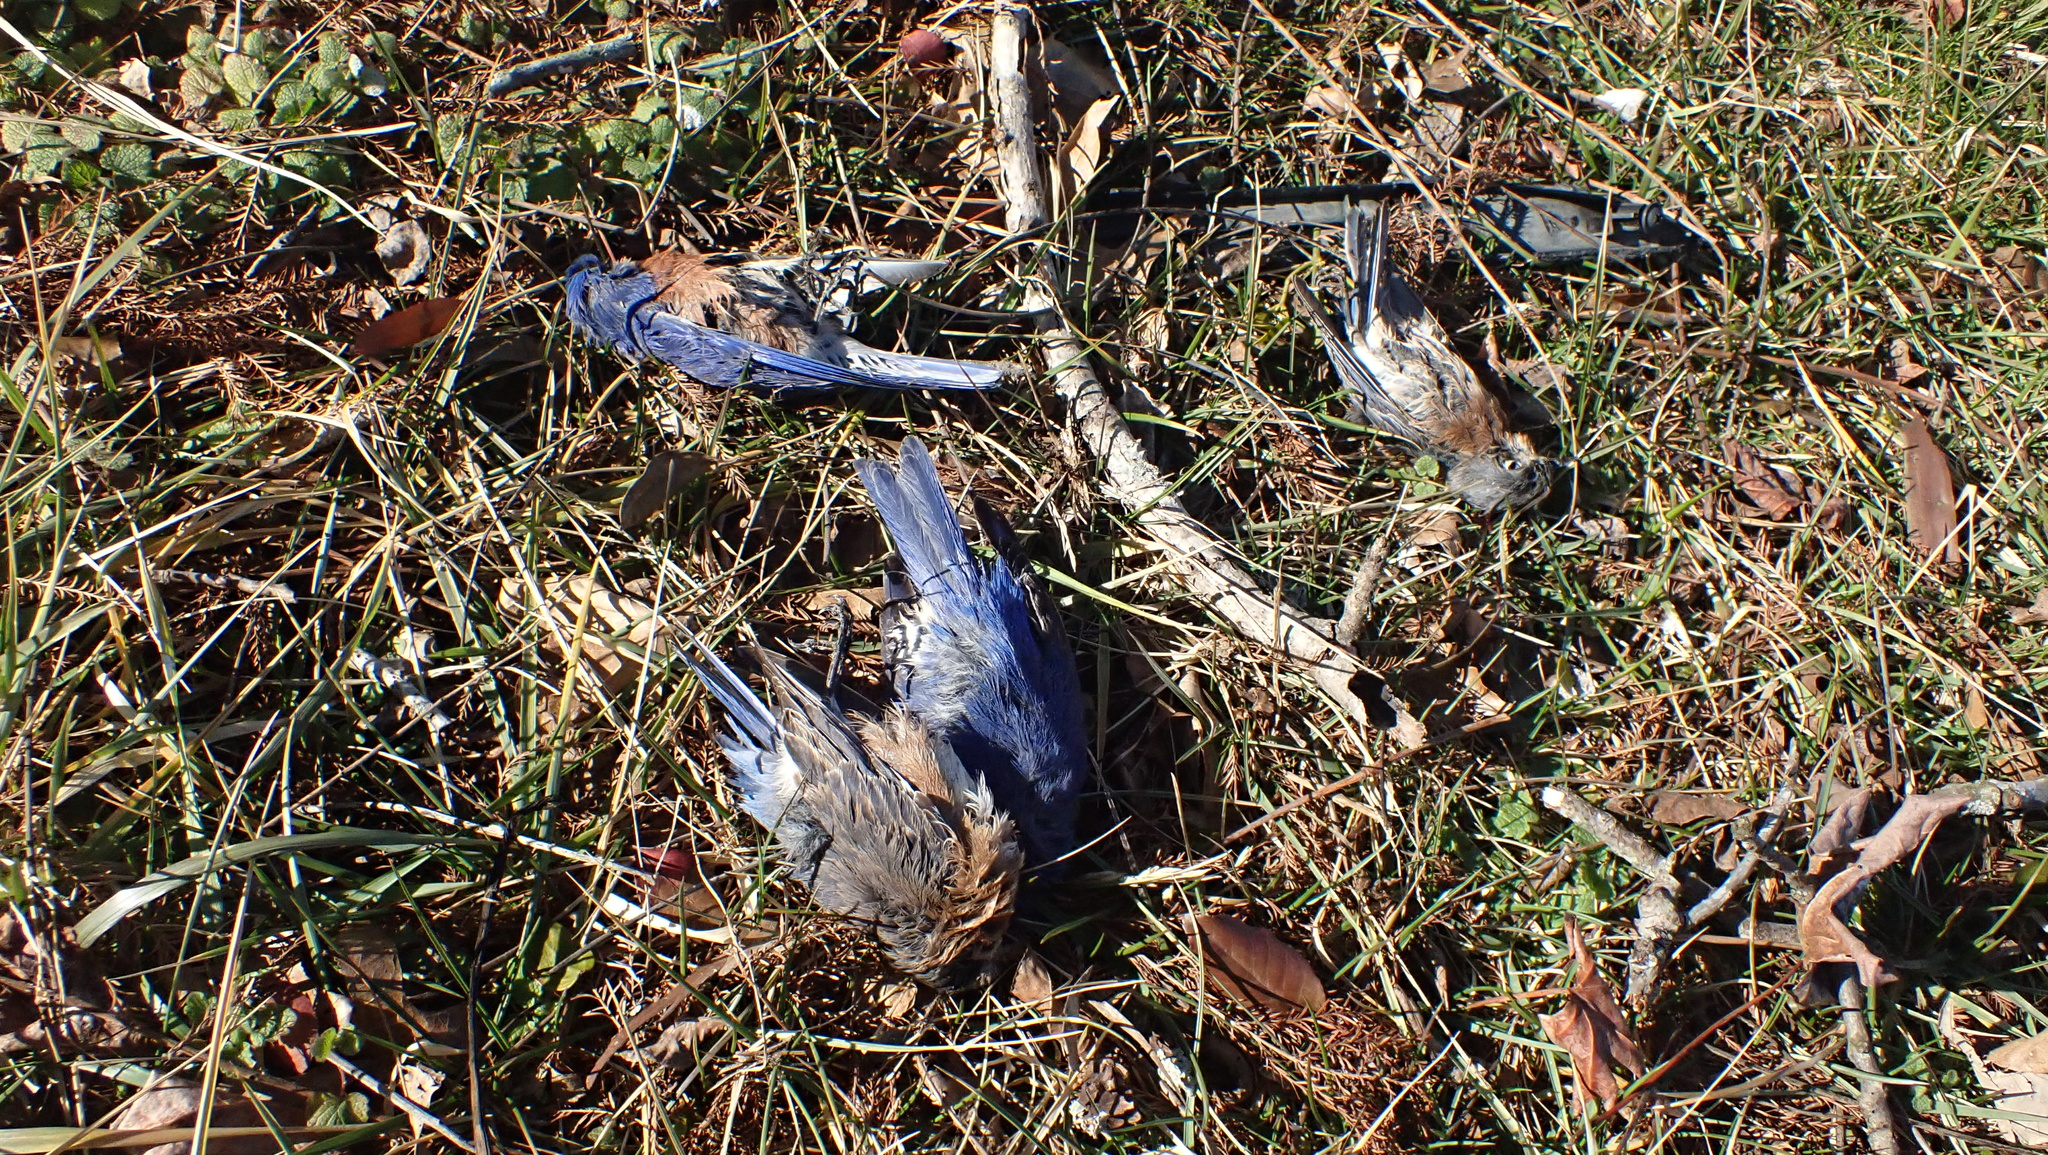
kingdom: Animalia
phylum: Chordata
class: Aves
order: Passeriformes
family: Turdidae
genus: Sialia
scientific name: Sialia sialis
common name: Eastern bluebird
